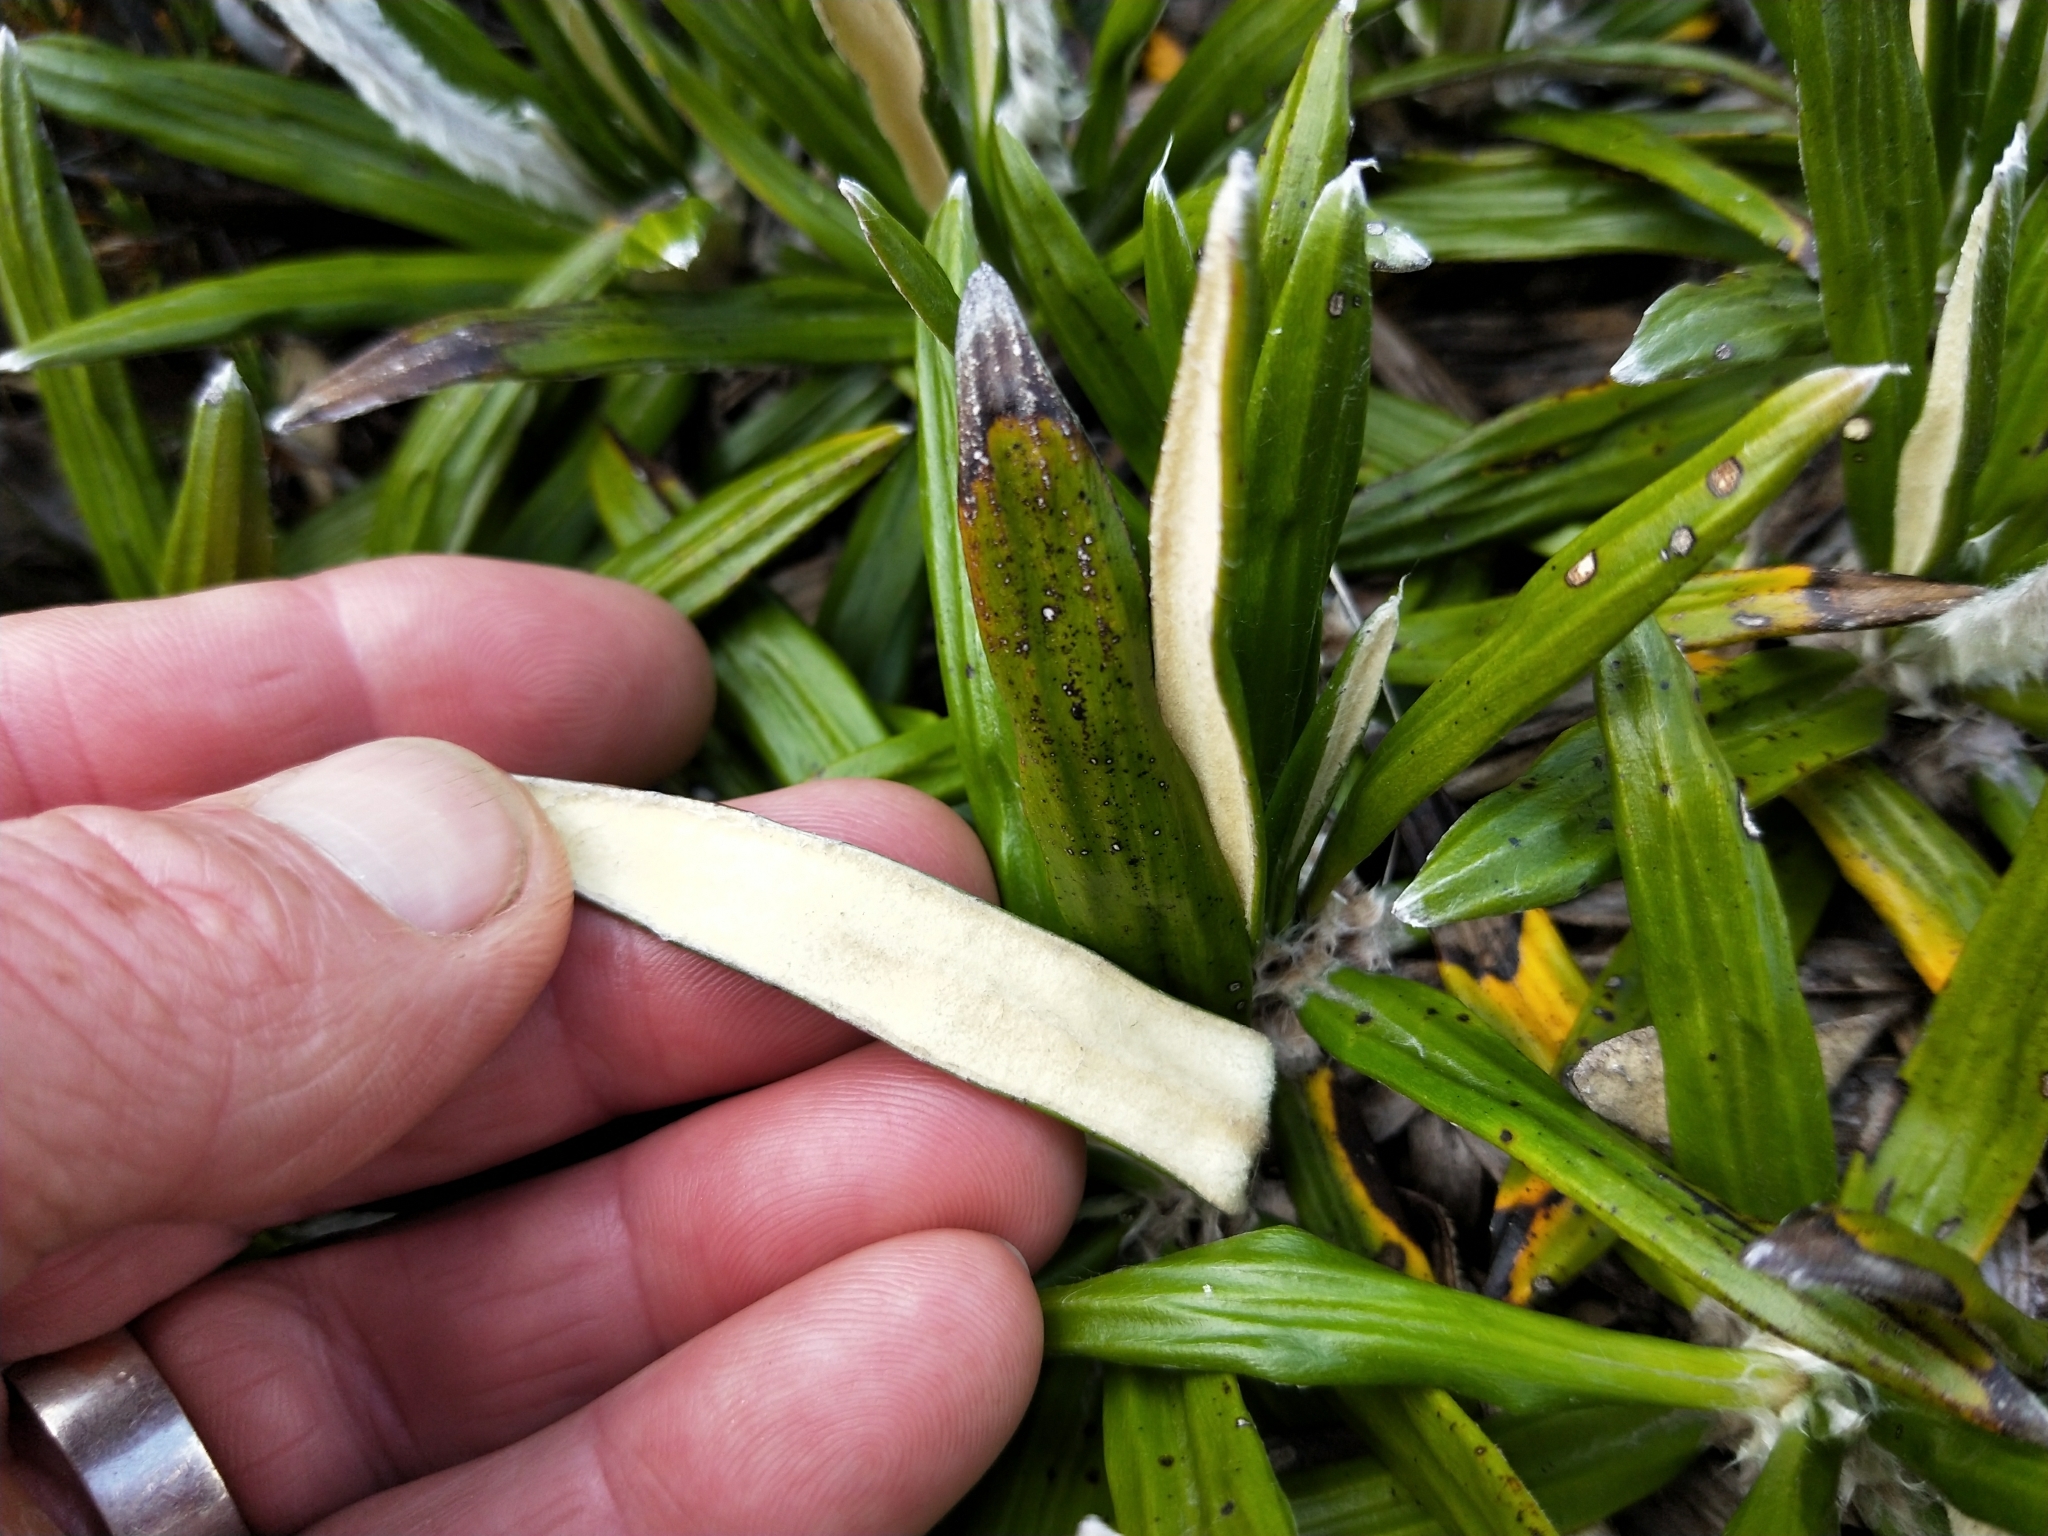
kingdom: Plantae
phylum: Tracheophyta
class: Magnoliopsida
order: Asterales
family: Asteraceae
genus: Celmisia
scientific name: Celmisia spectabilis
